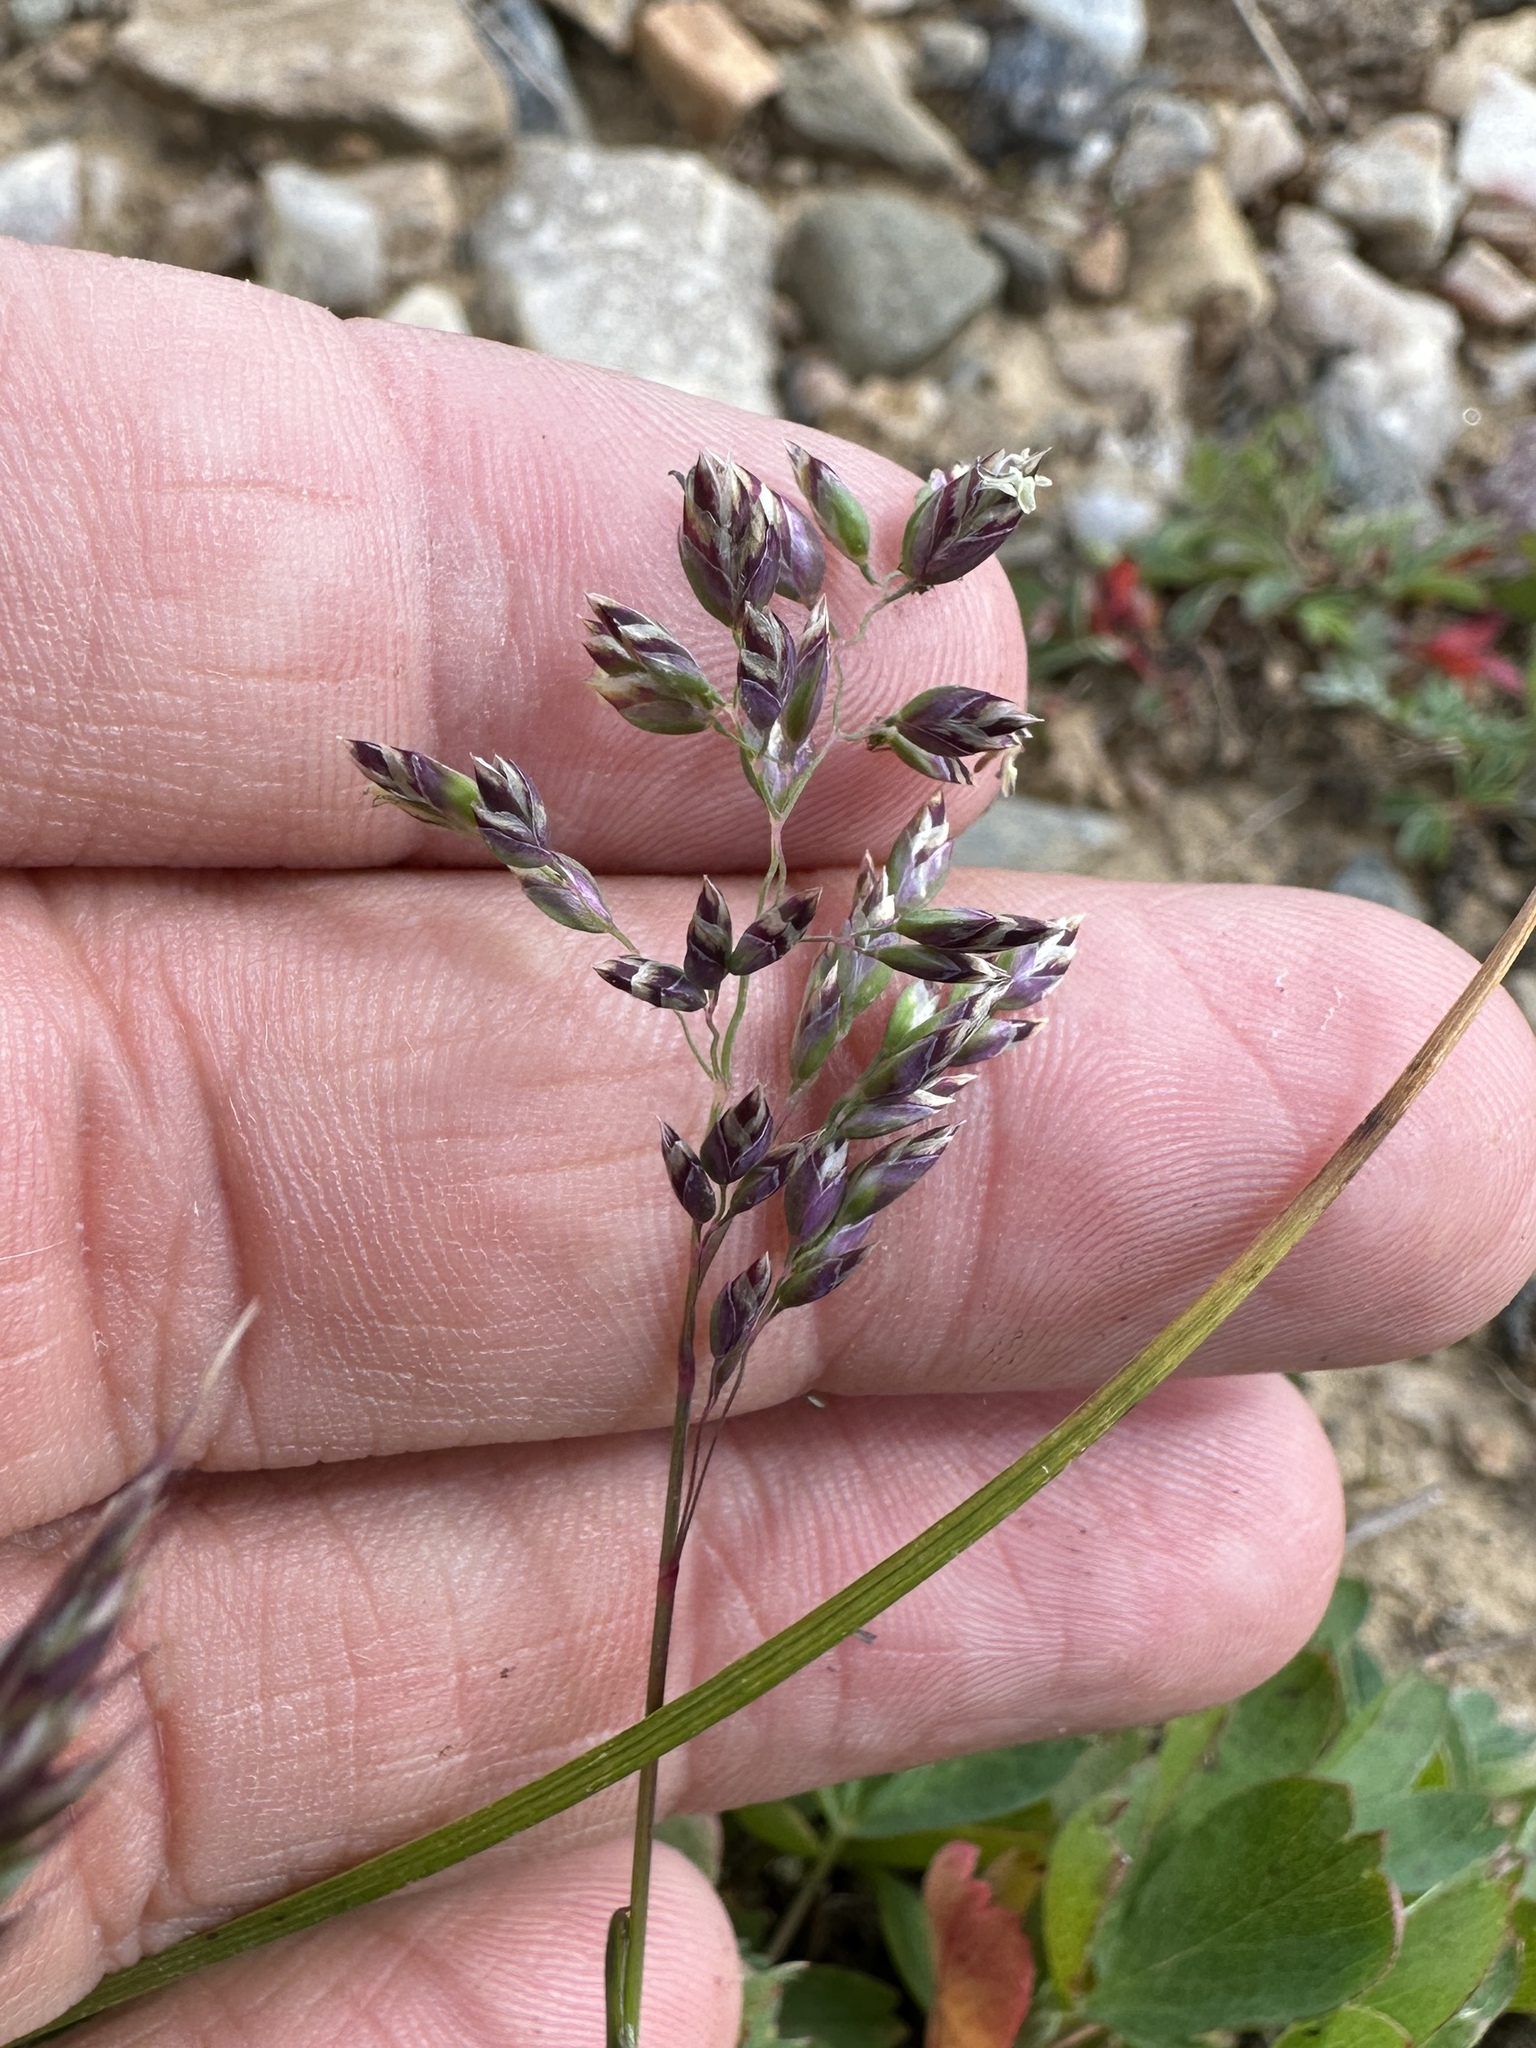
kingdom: Plantae
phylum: Tracheophyta
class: Liliopsida
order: Poales
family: Poaceae
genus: Poa
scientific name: Poa alpina
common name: Alpine bluegrass
